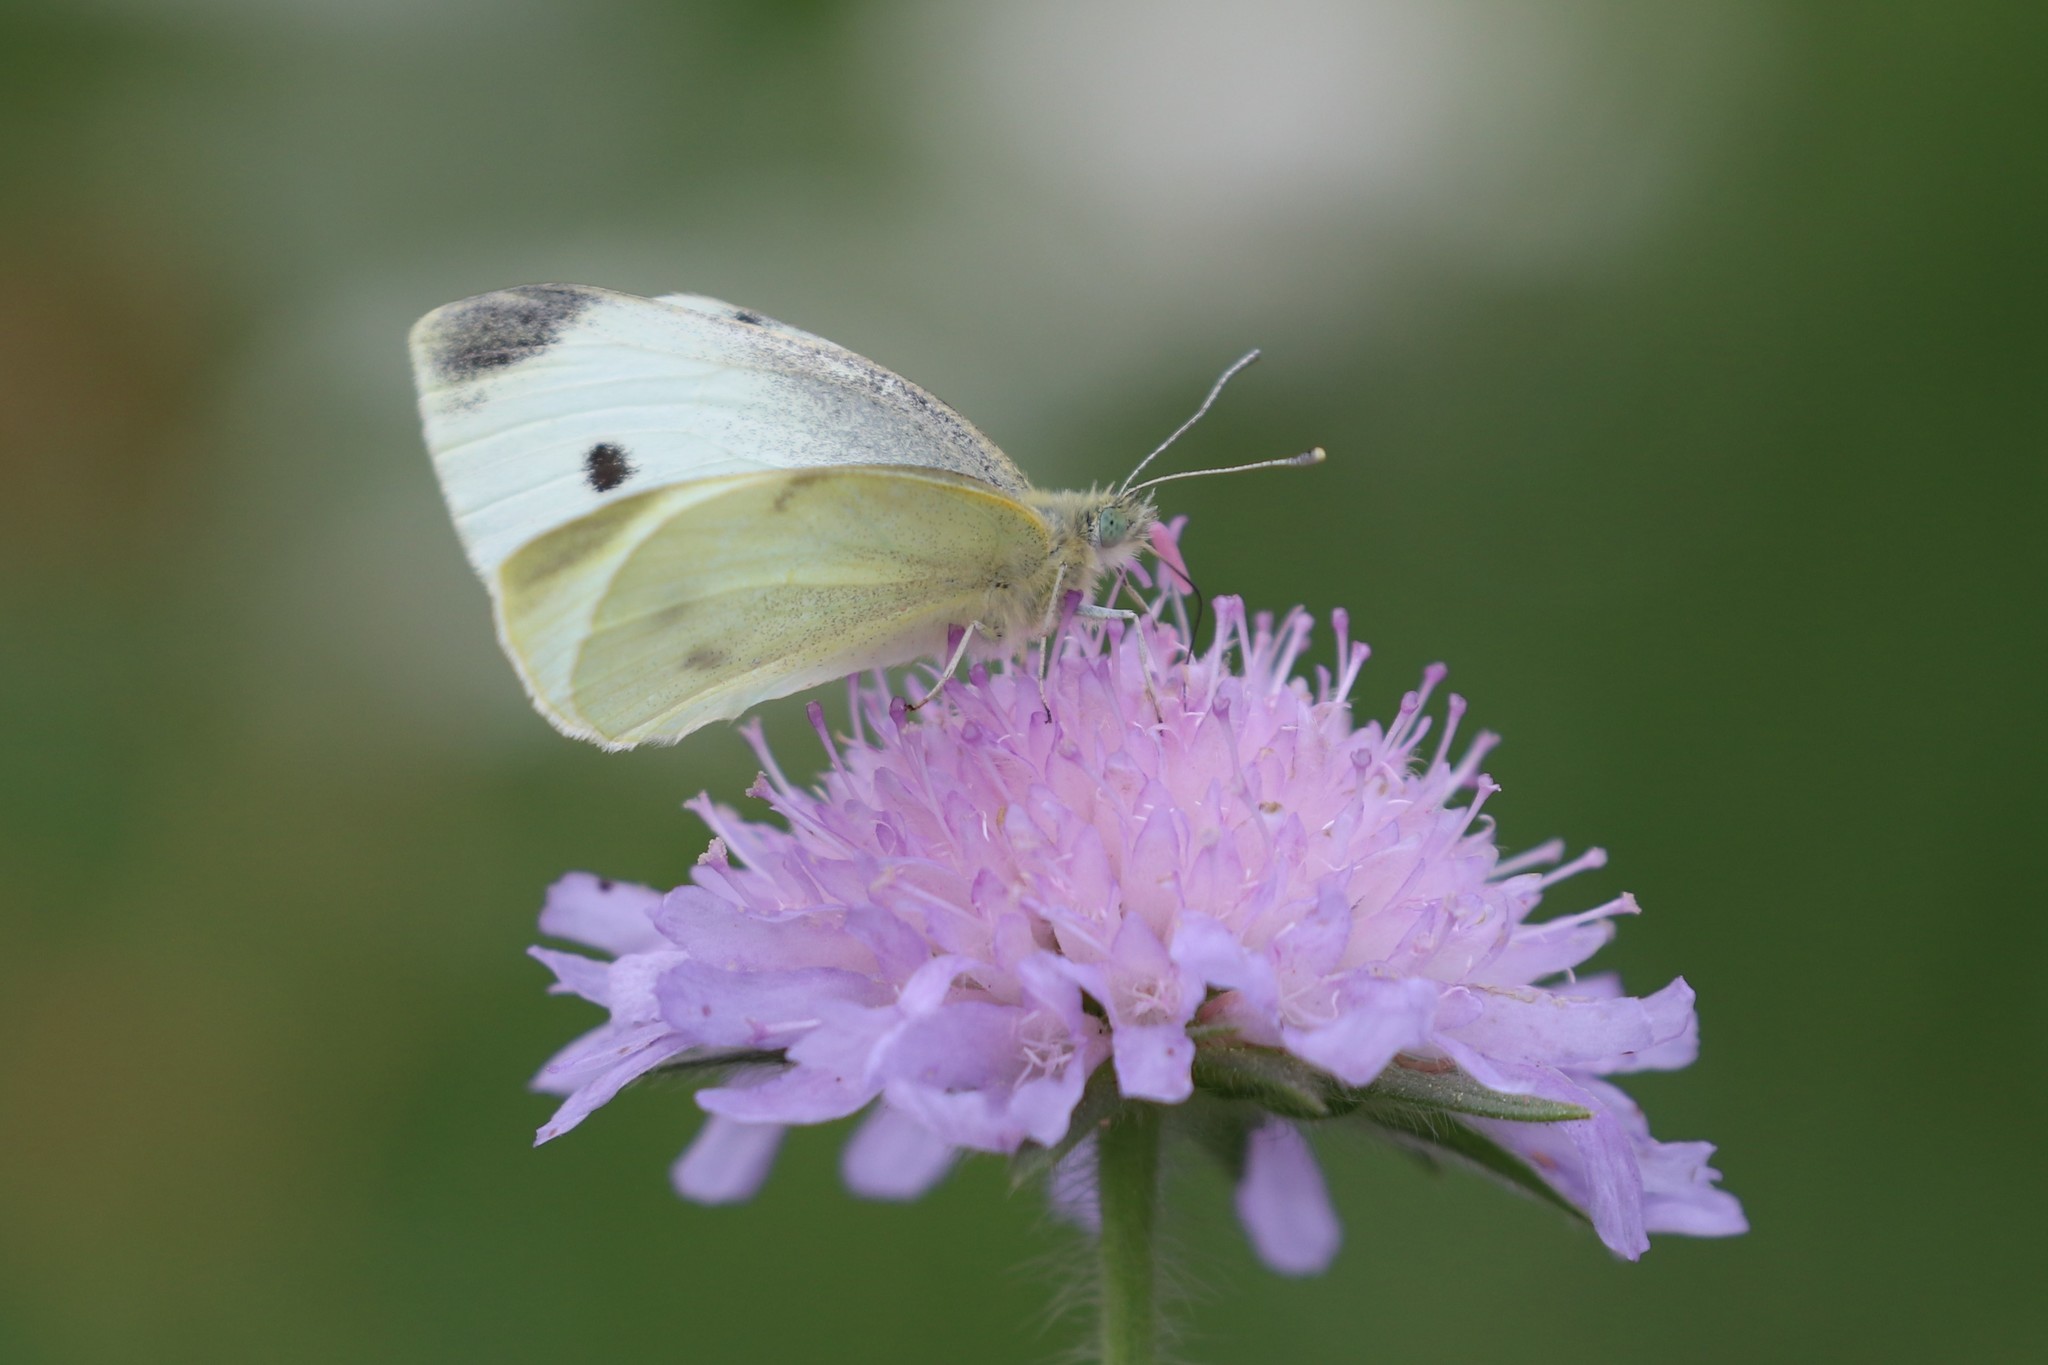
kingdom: Animalia
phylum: Arthropoda
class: Insecta
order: Lepidoptera
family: Pieridae
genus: Pieris
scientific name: Pieris rapae
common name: Small white
